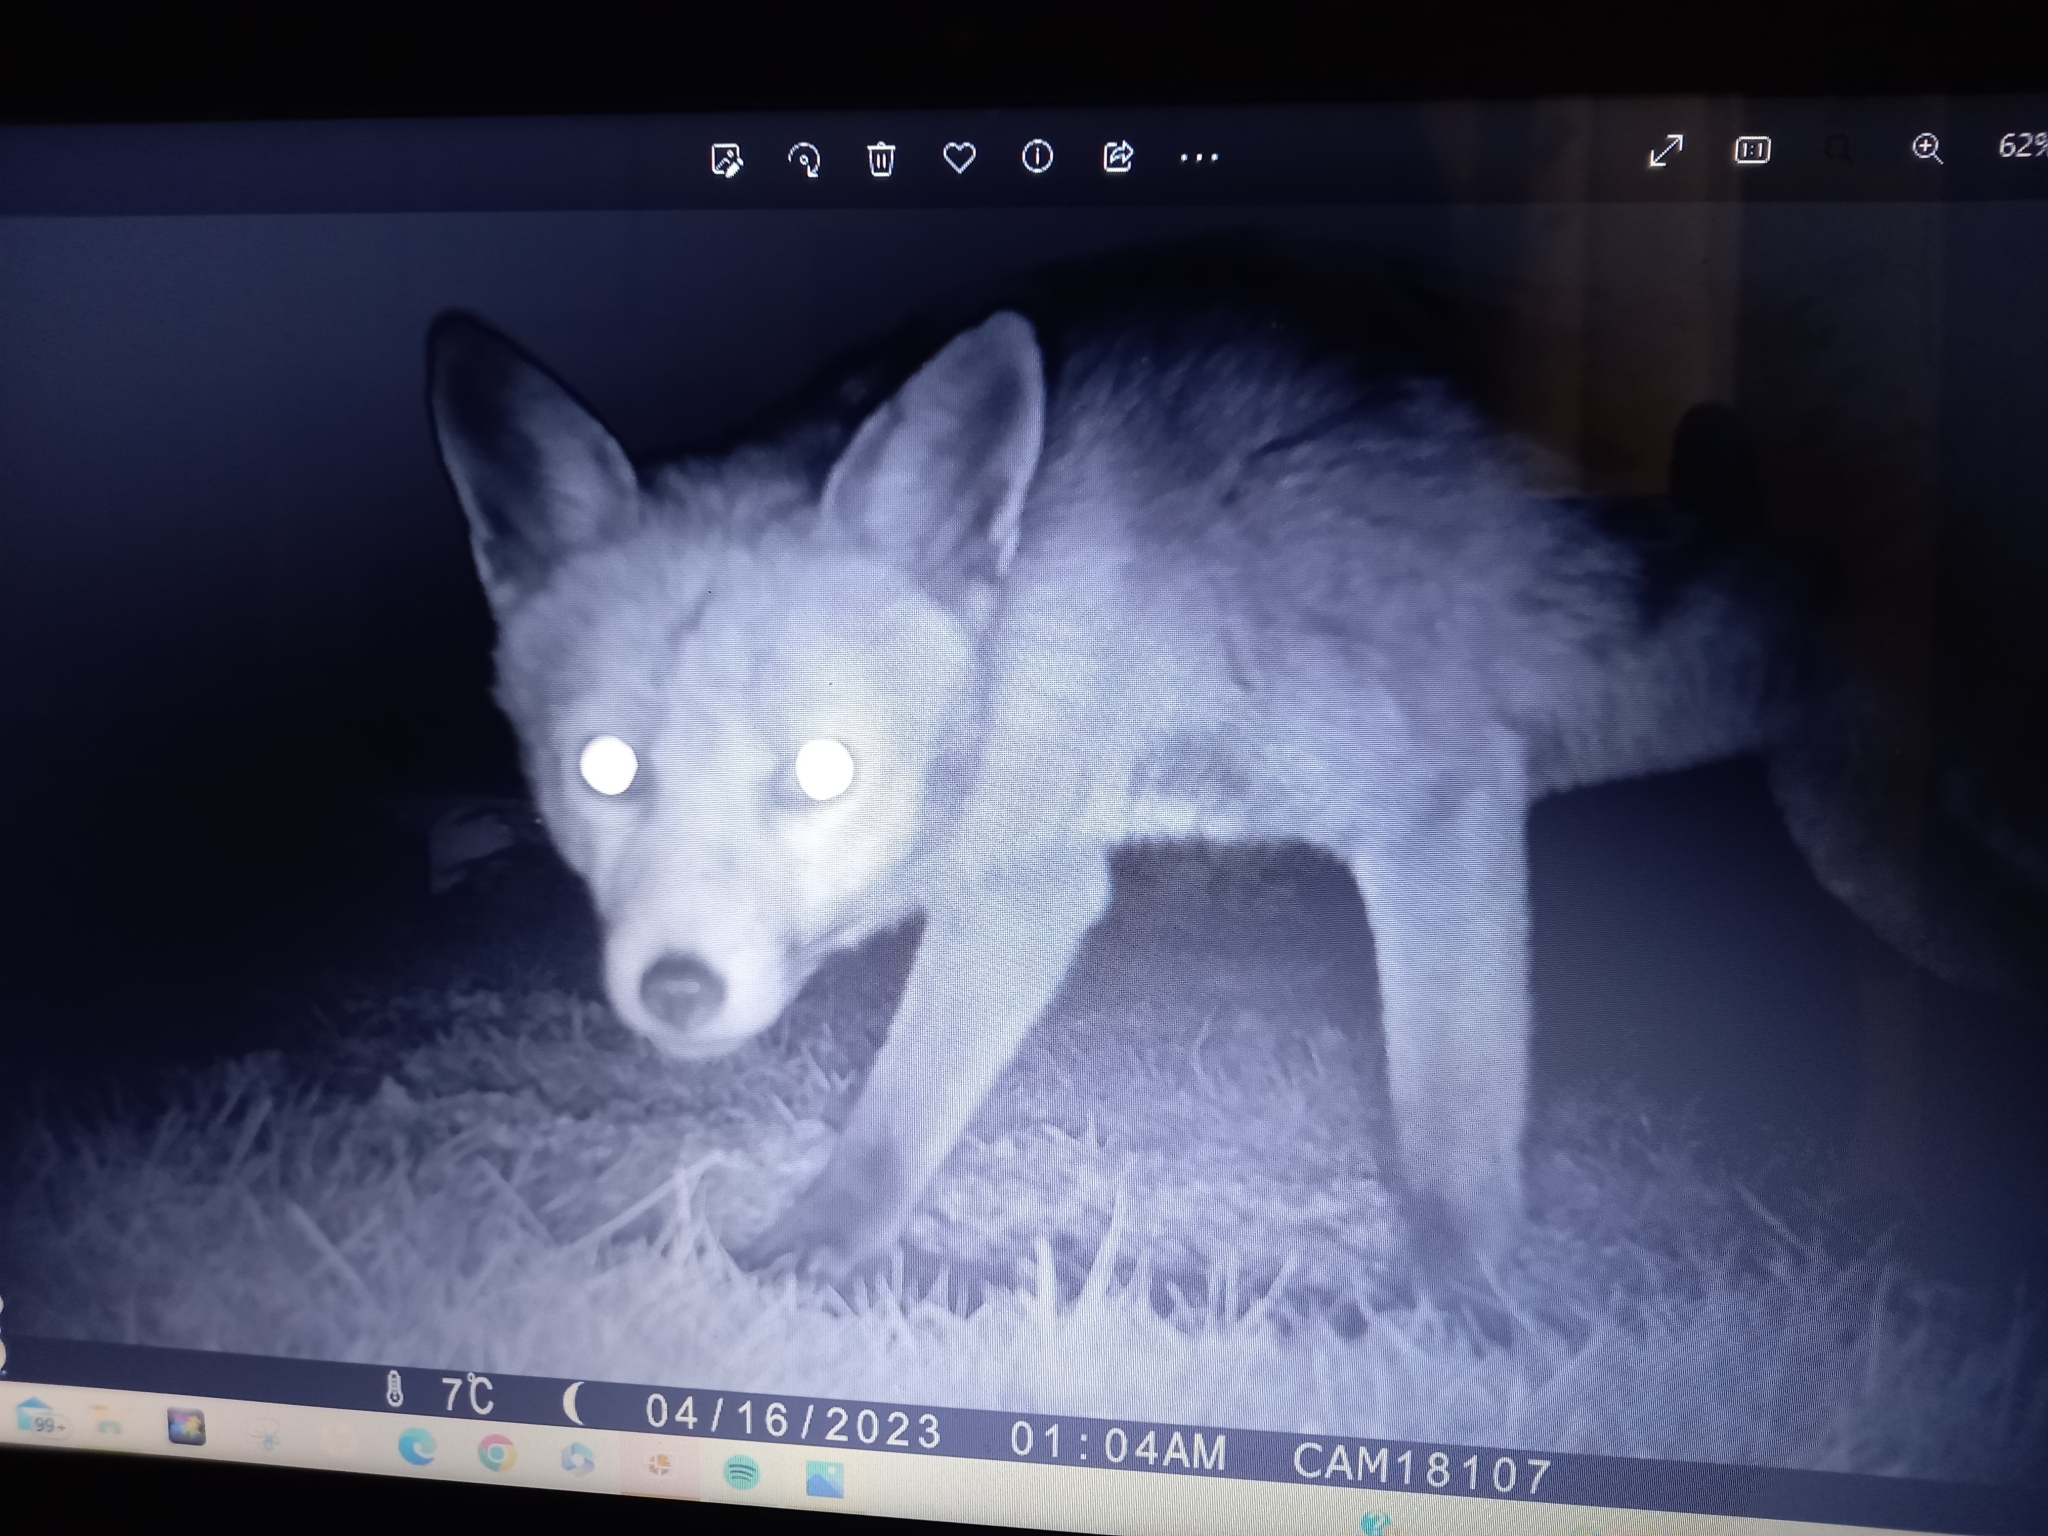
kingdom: Animalia
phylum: Chordata
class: Mammalia
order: Carnivora
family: Canidae
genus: Vulpes
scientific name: Vulpes vulpes
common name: Red fox
